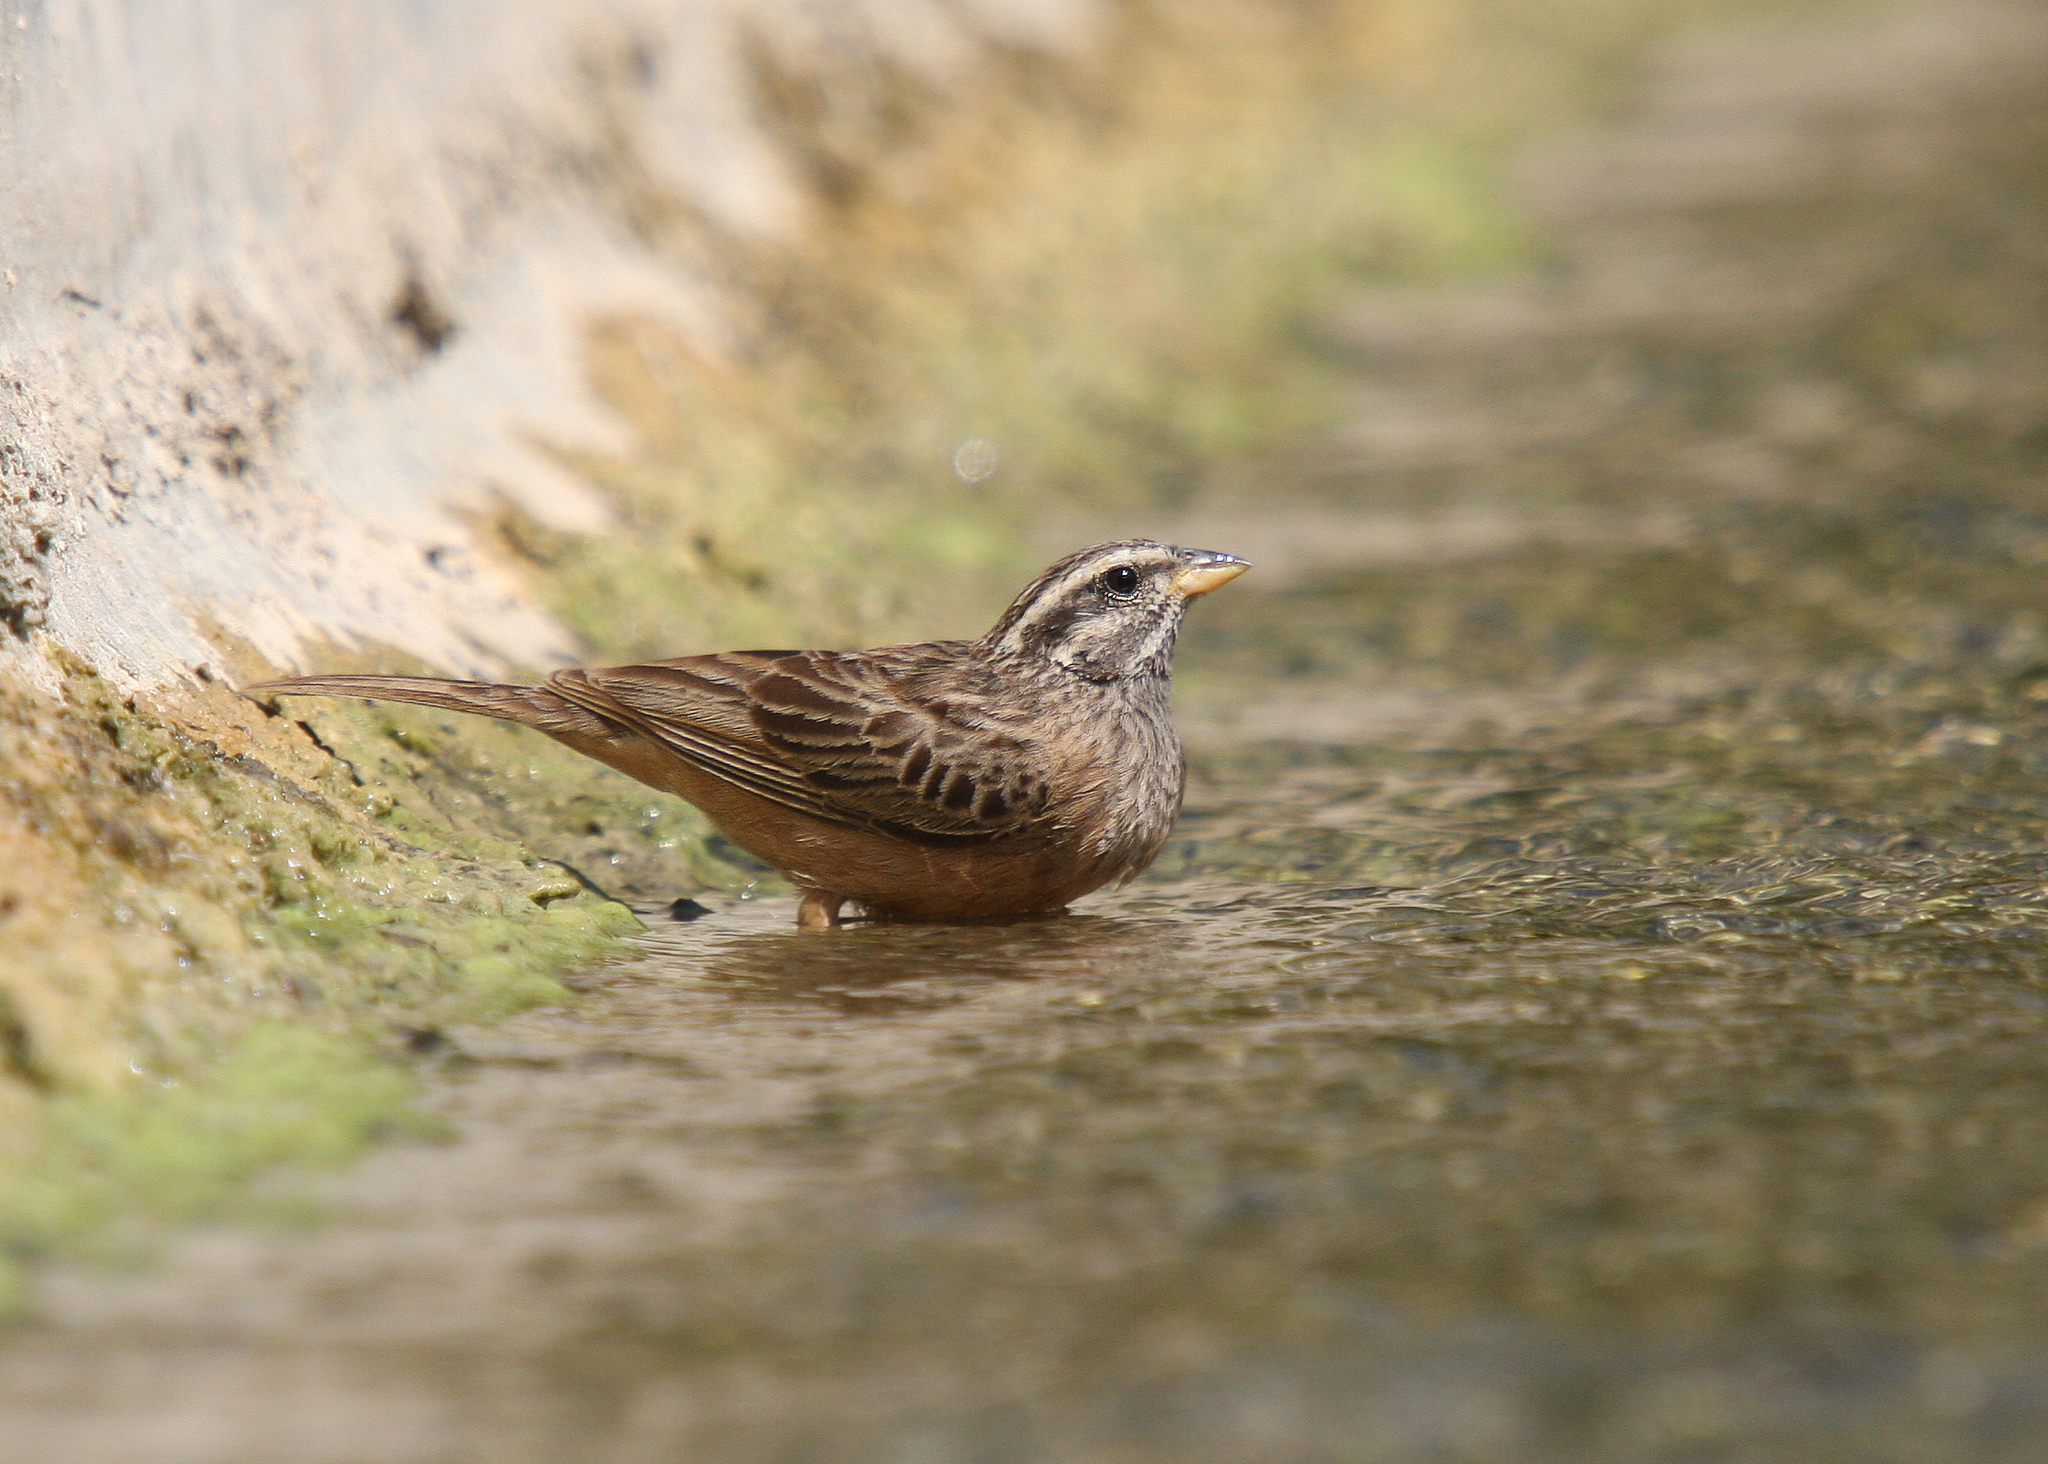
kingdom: Animalia
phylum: Chordata
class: Aves
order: Passeriformes
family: Emberizidae
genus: Emberiza
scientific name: Emberiza striolata
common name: Striolated bunting
